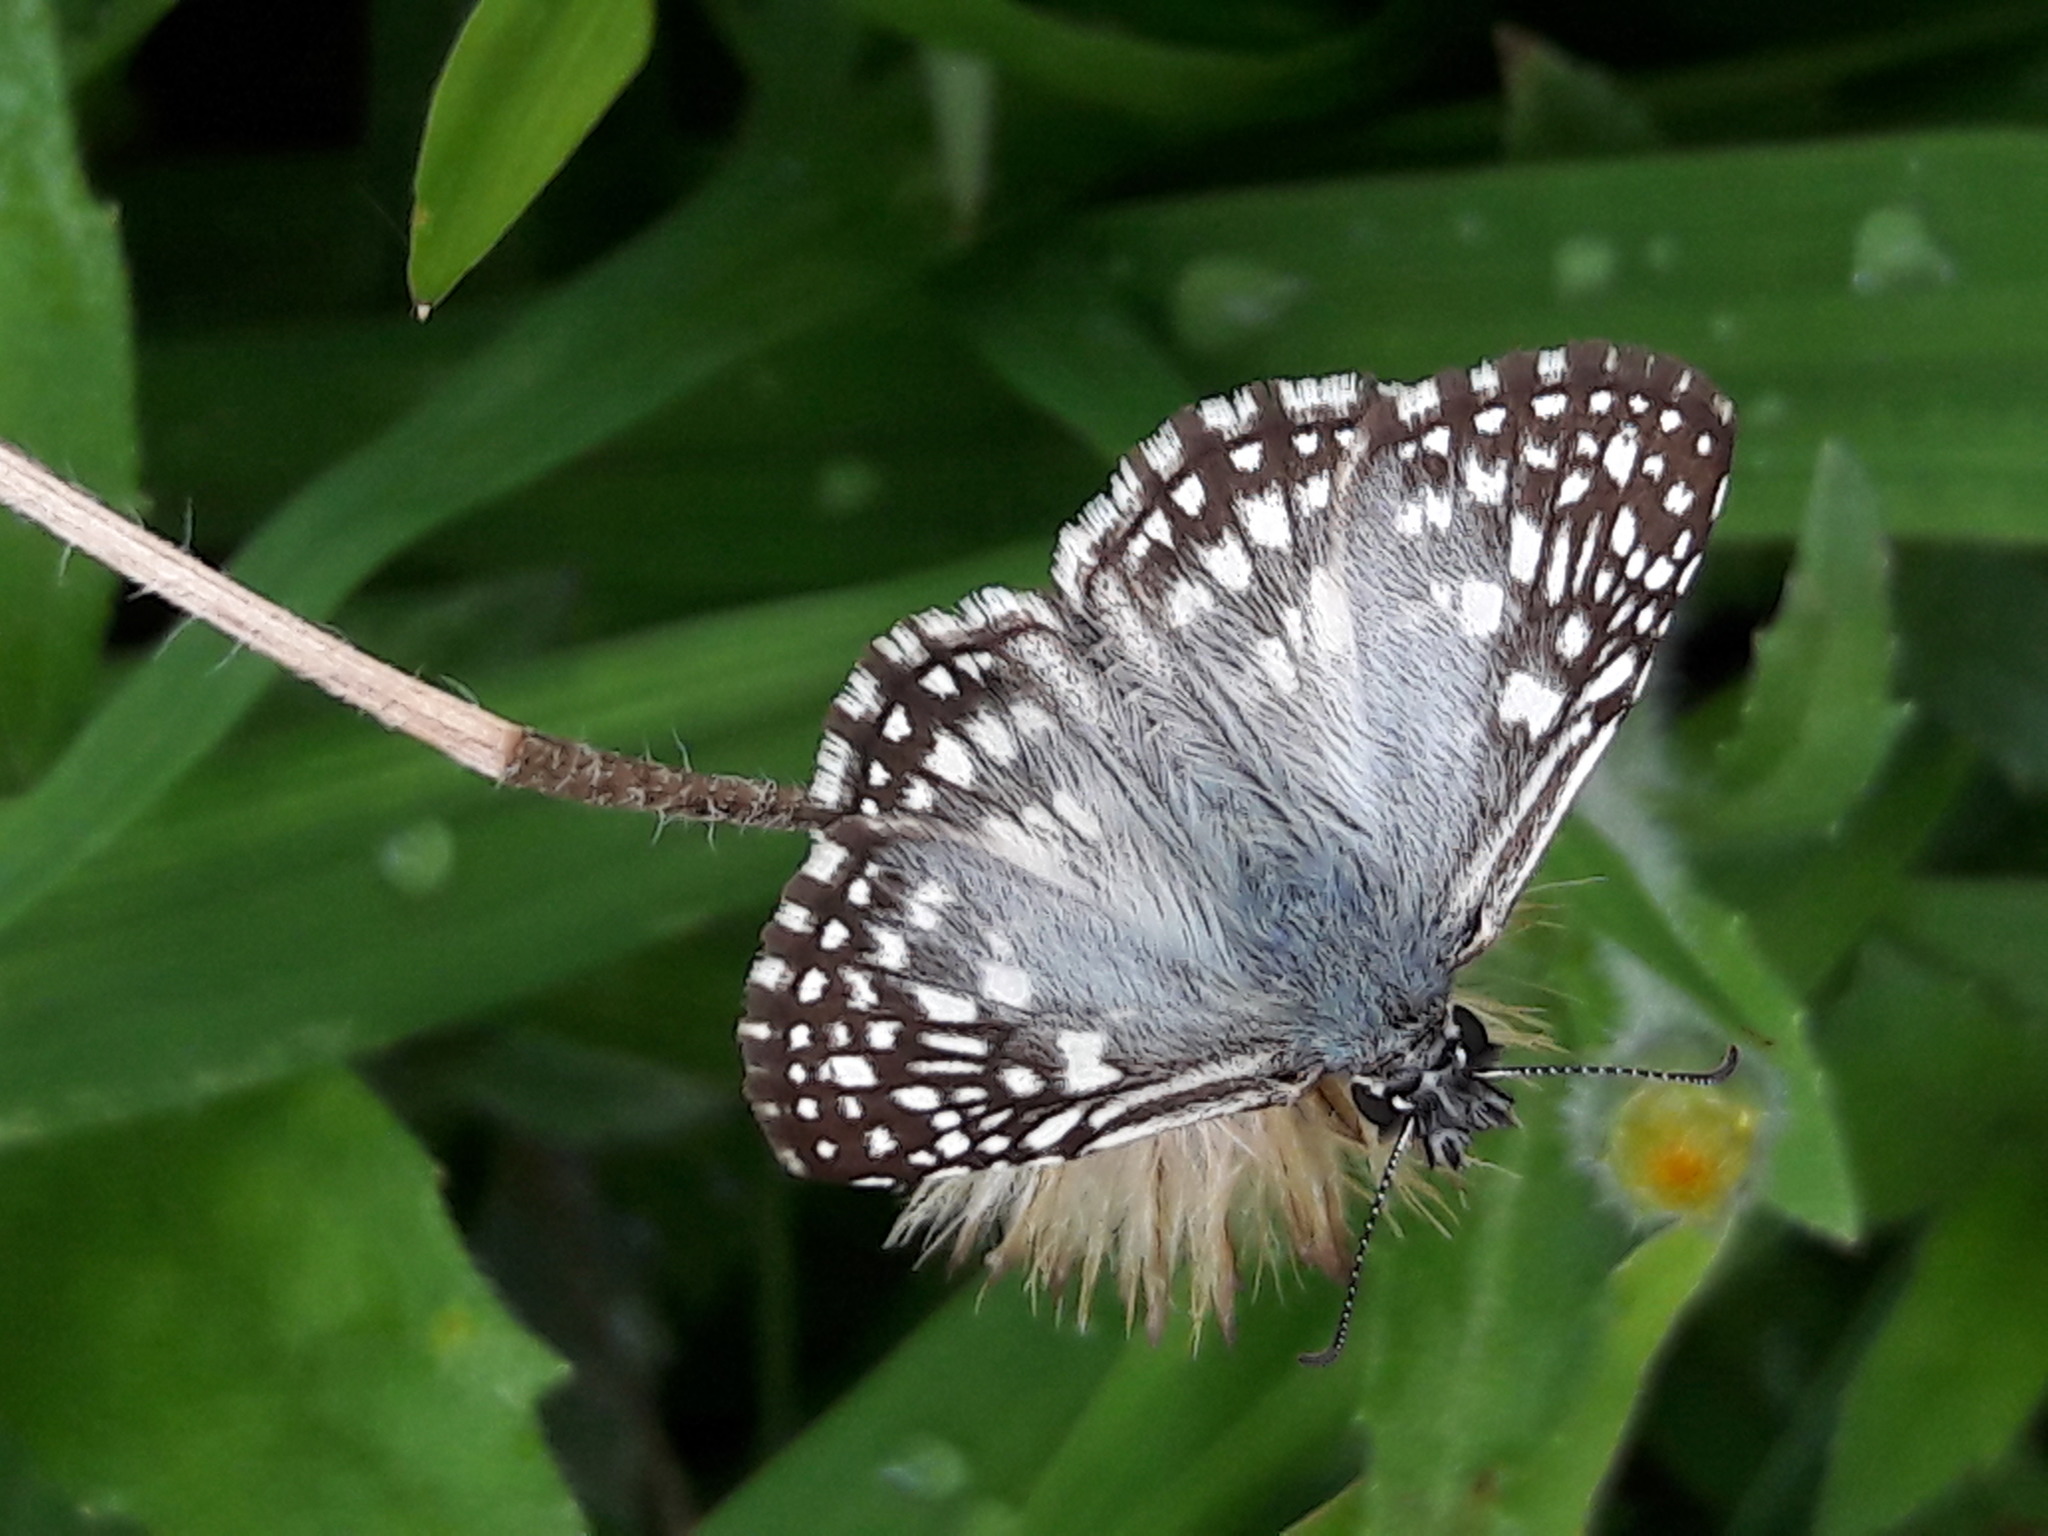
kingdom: Animalia
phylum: Arthropoda
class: Insecta
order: Lepidoptera
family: Hesperiidae
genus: Pyrgus
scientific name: Pyrgus oileus
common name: Tropical checkered-skipper
